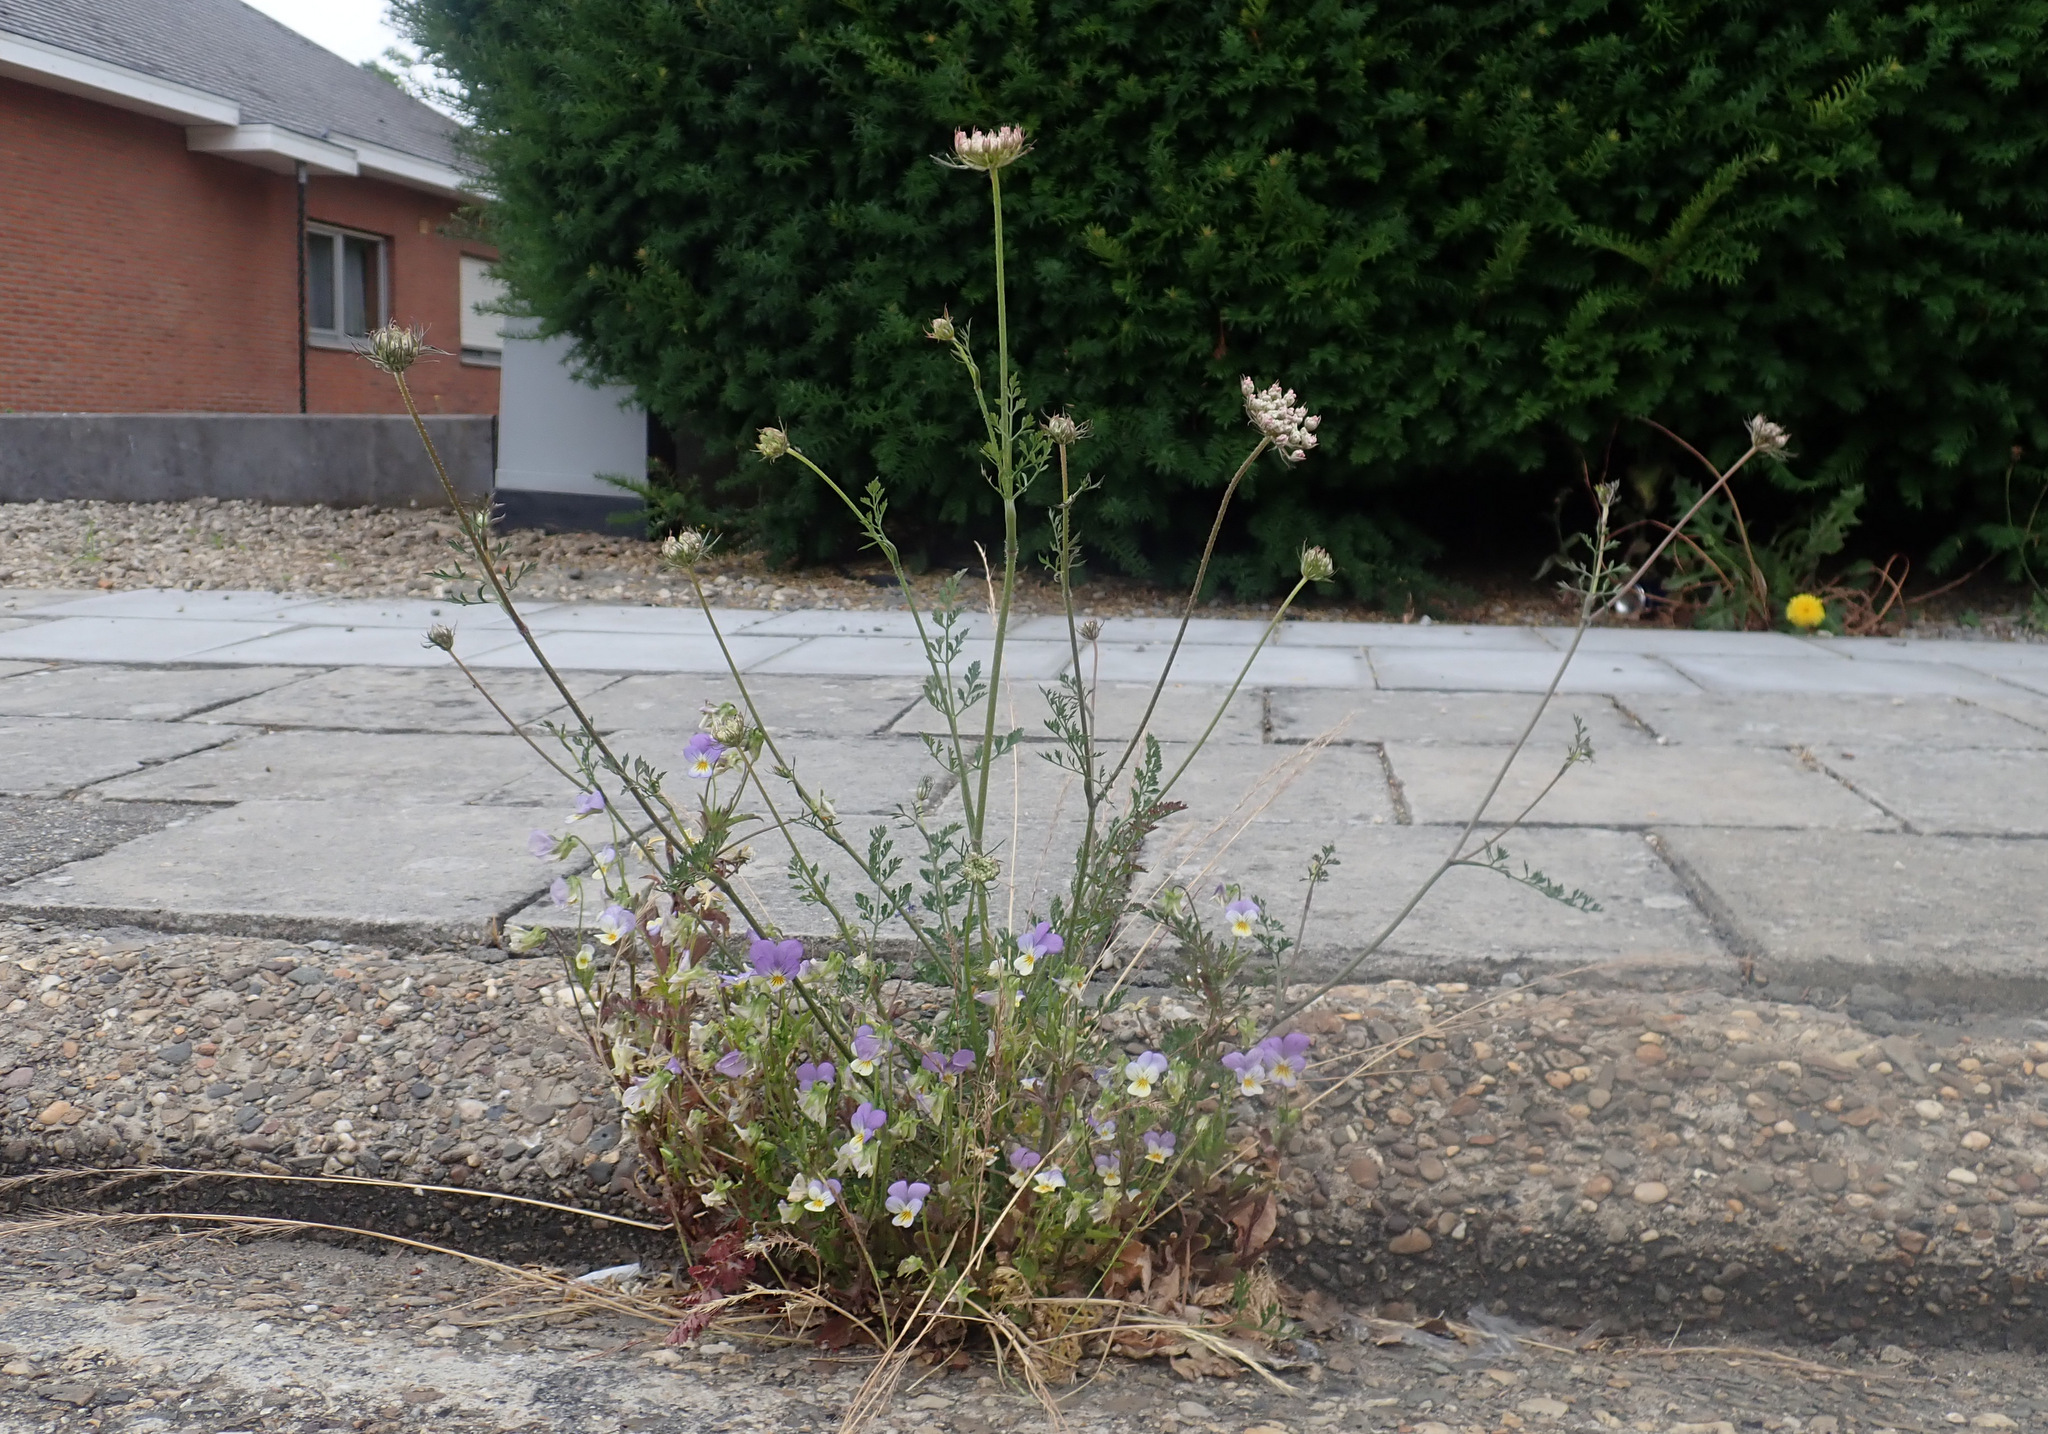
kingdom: Plantae
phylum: Tracheophyta
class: Magnoliopsida
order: Malpighiales
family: Violaceae
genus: Viola
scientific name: Viola tricolor
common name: Pansy
